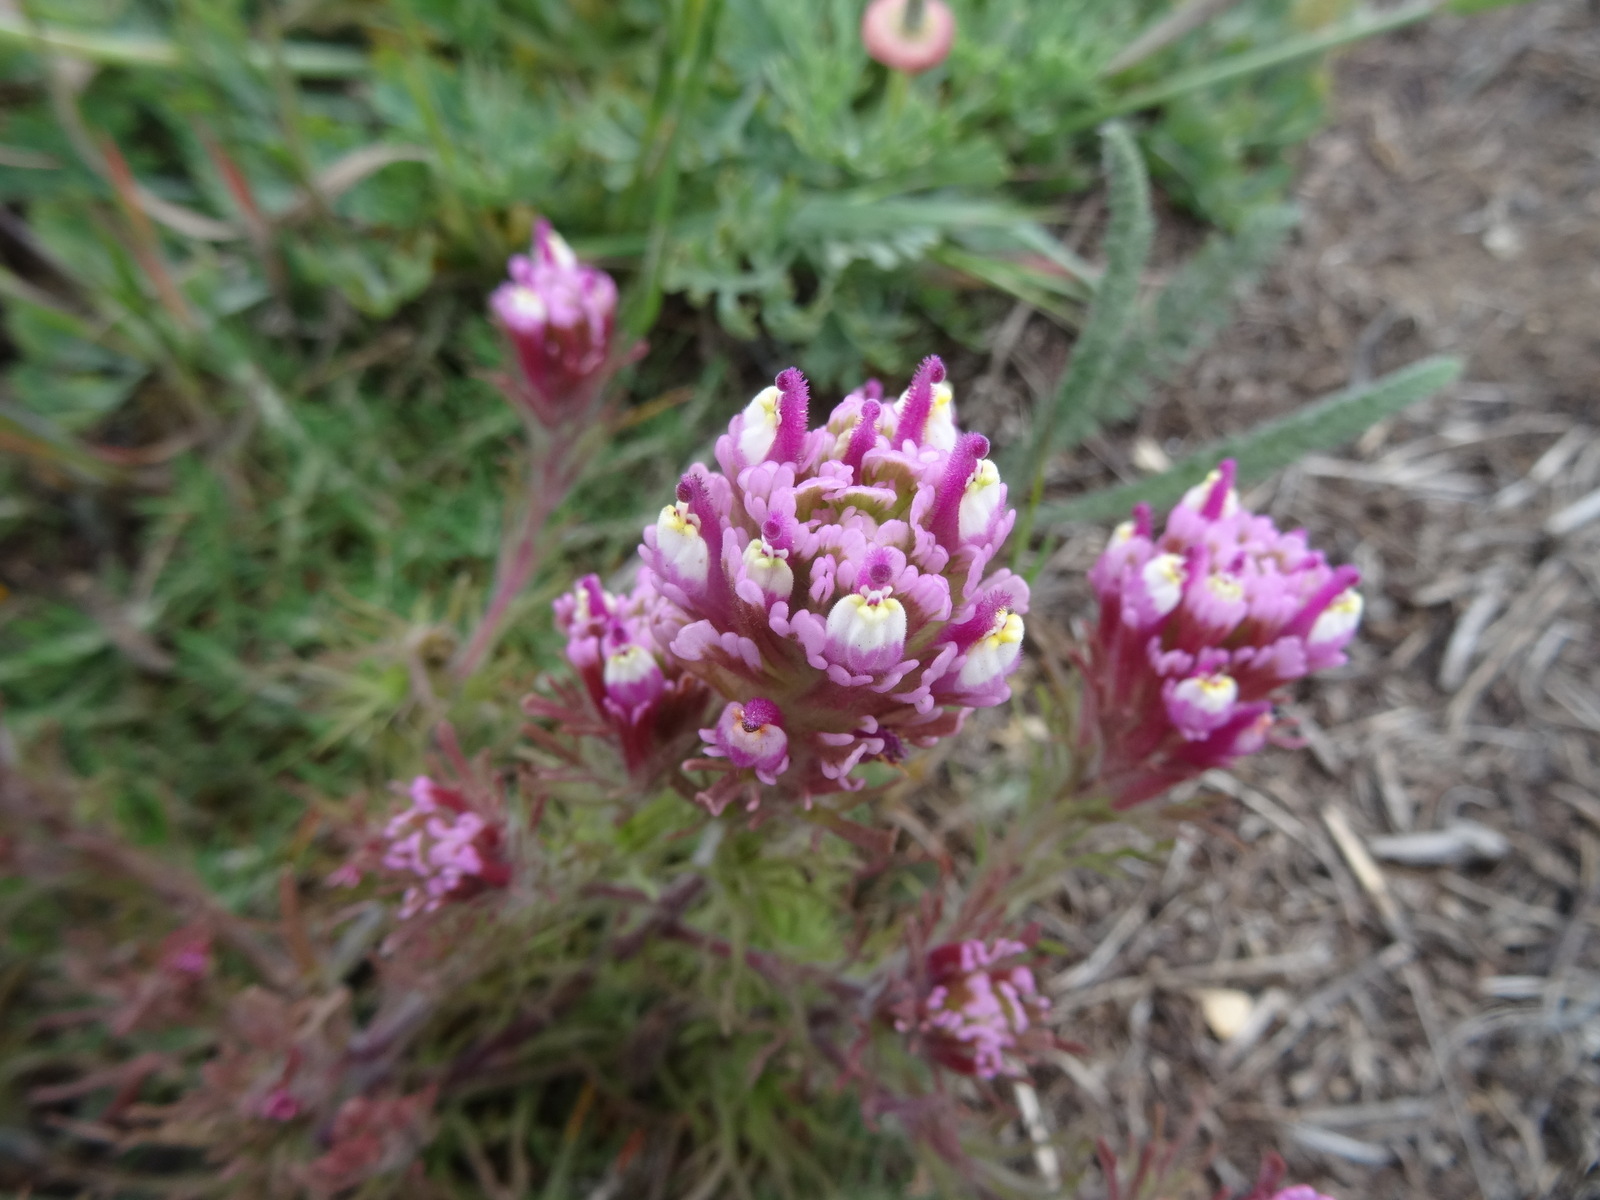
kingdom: Plantae
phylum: Tracheophyta
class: Magnoliopsida
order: Lamiales
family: Orobanchaceae
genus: Castilleja
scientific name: Castilleja exserta
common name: Purple owl-clover
